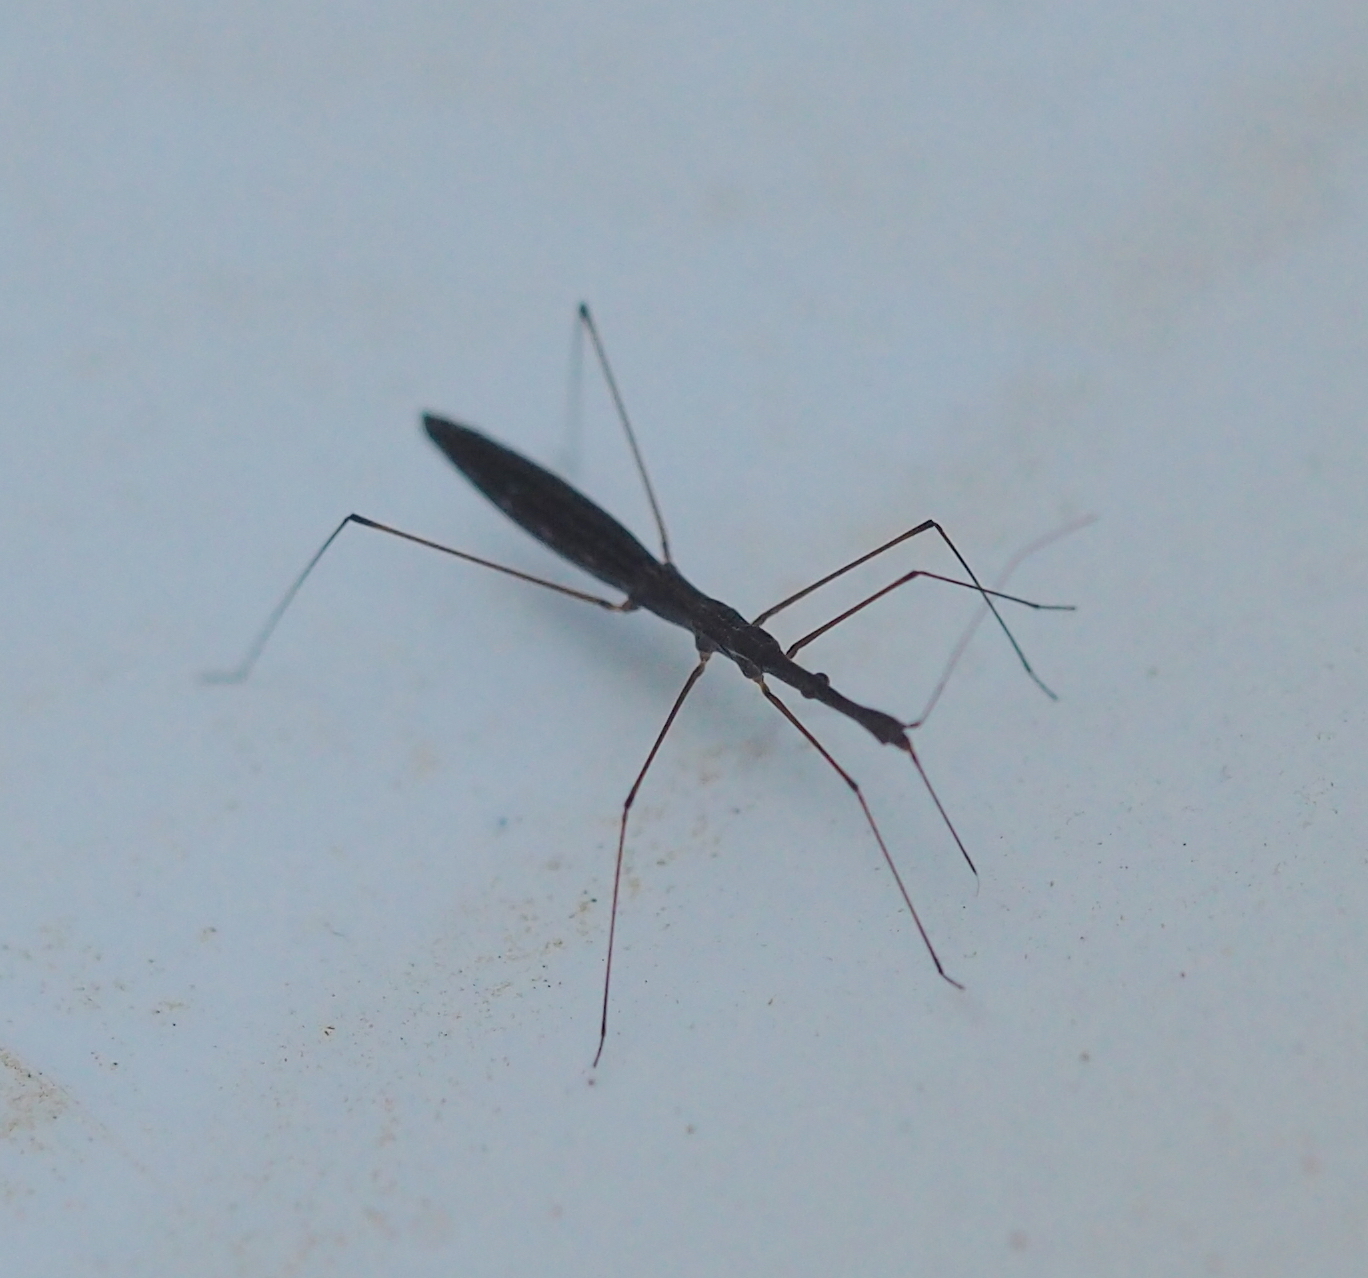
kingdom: Animalia
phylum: Arthropoda
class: Insecta
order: Hemiptera
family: Hydrometridae
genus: Hydrometra
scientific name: Hydrometra stagnorum
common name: Water measurer
